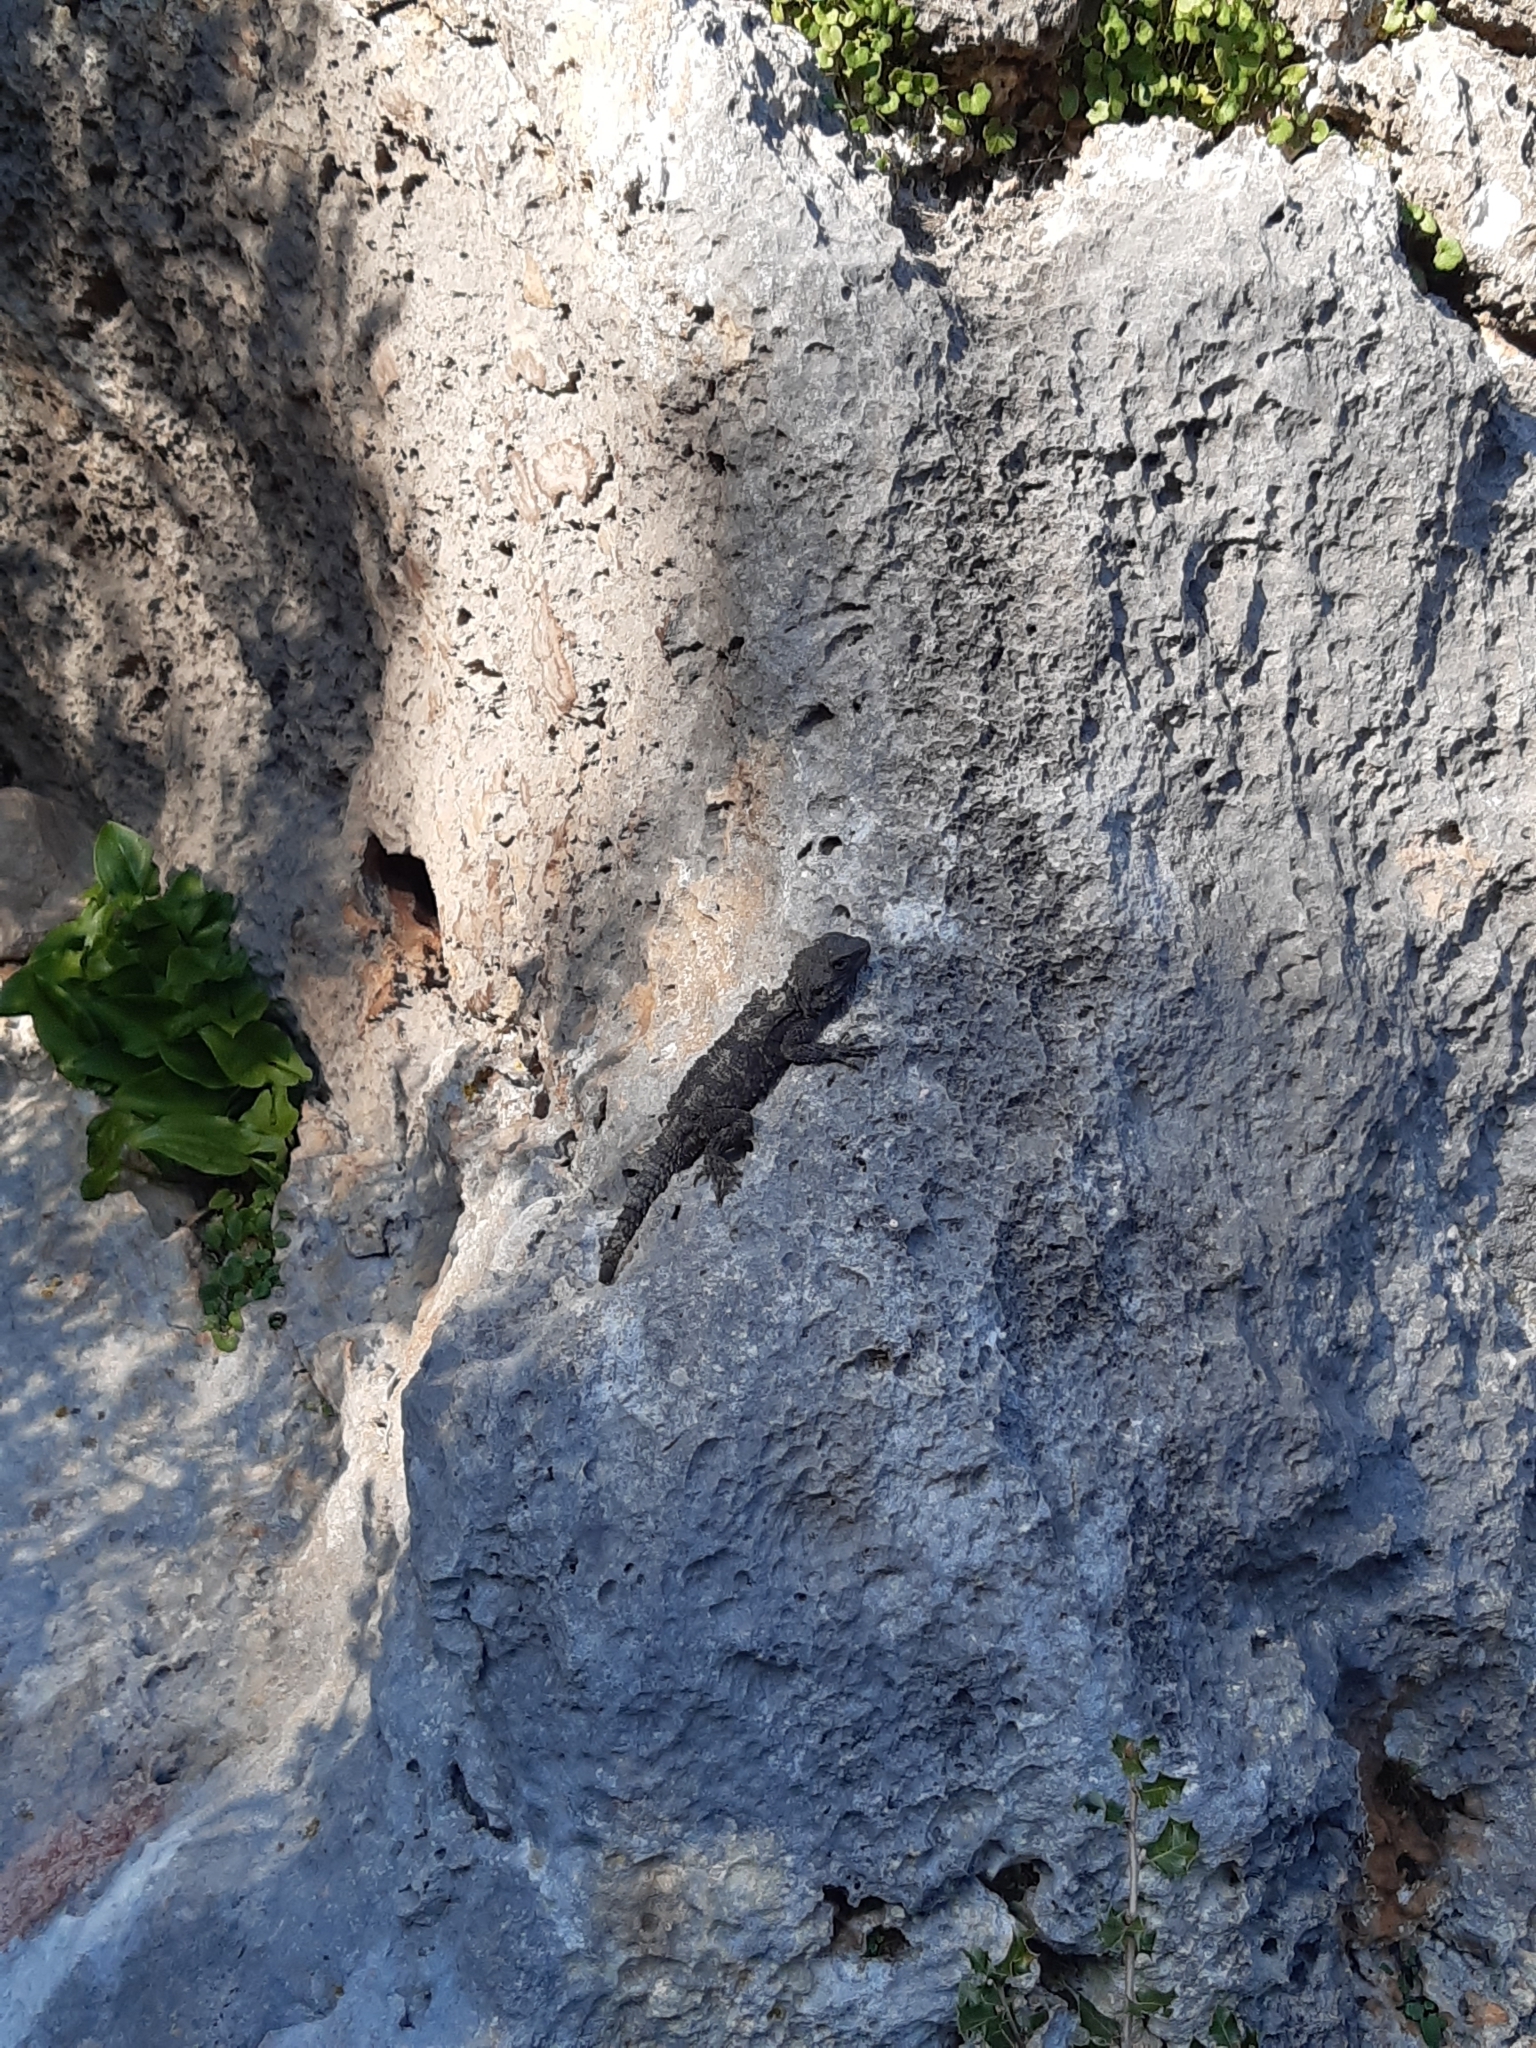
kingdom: Animalia
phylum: Chordata
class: Squamata
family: Agamidae
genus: Stellagama
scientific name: Stellagama stellio
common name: Starred agama
